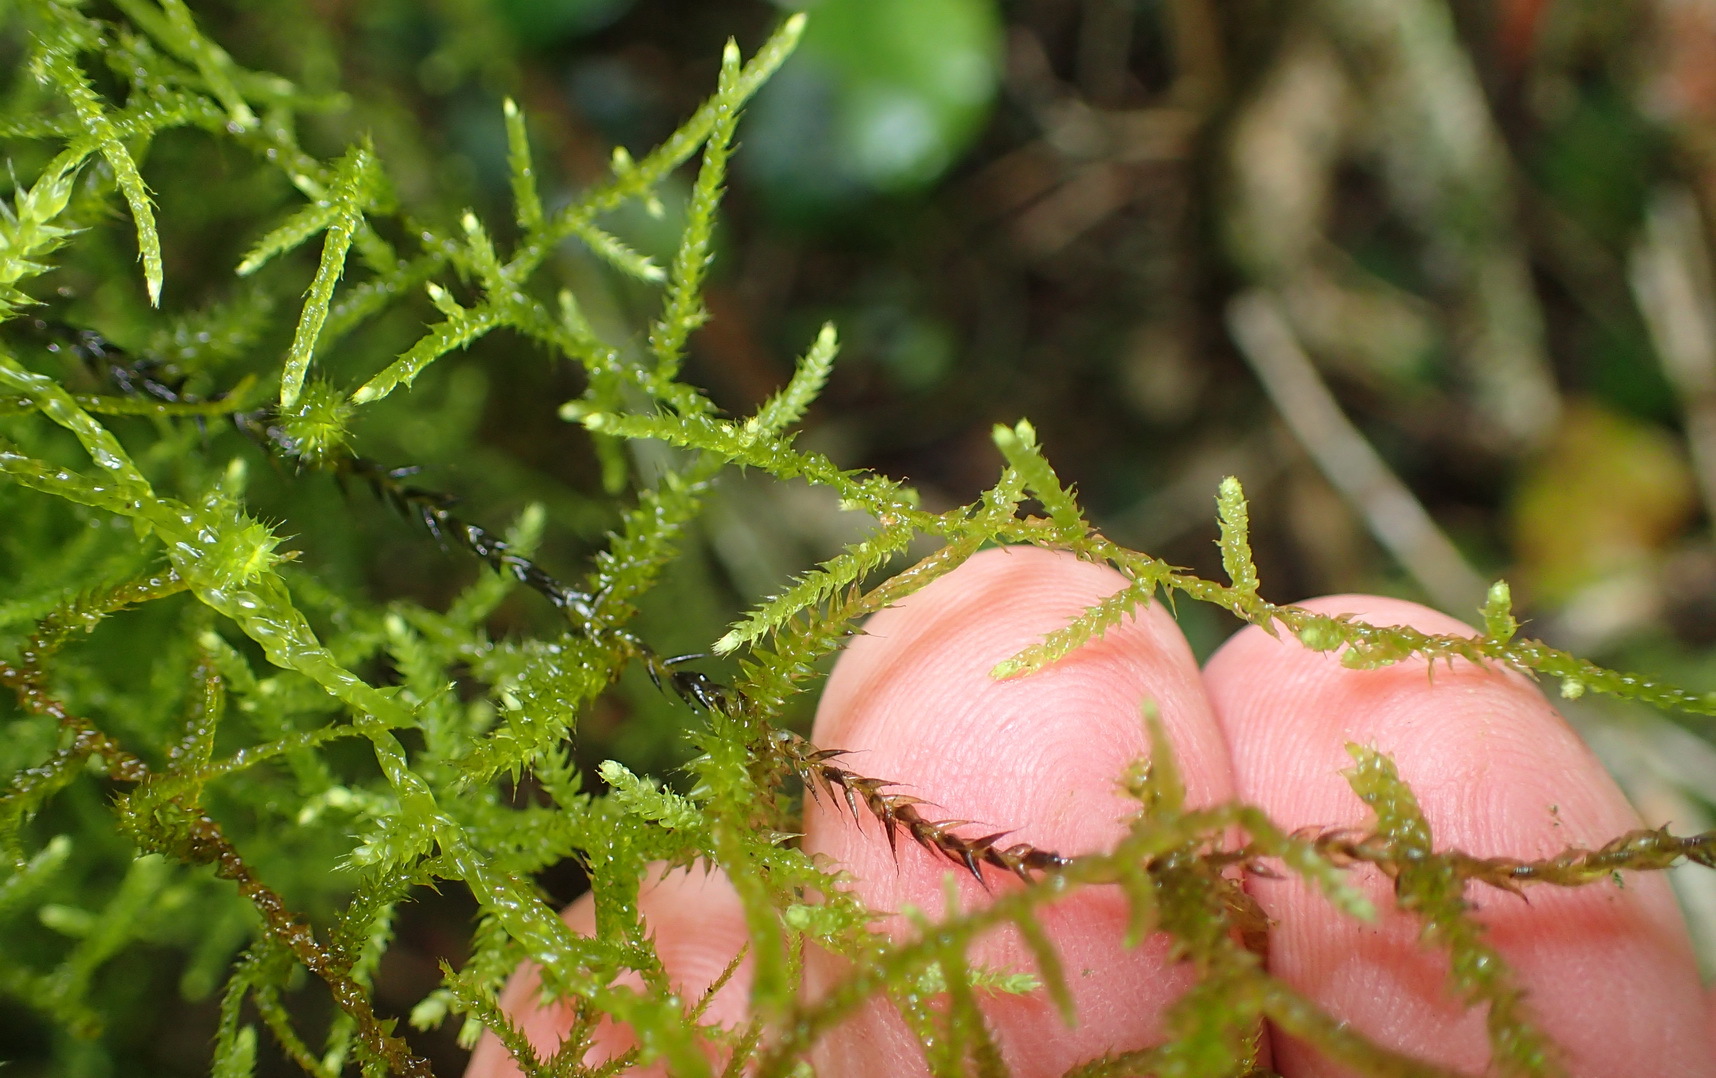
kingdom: Plantae
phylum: Bryophyta
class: Bryopsida
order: Hypnales
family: Meteoriaceae
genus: Papillaria
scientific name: Papillaria africana
